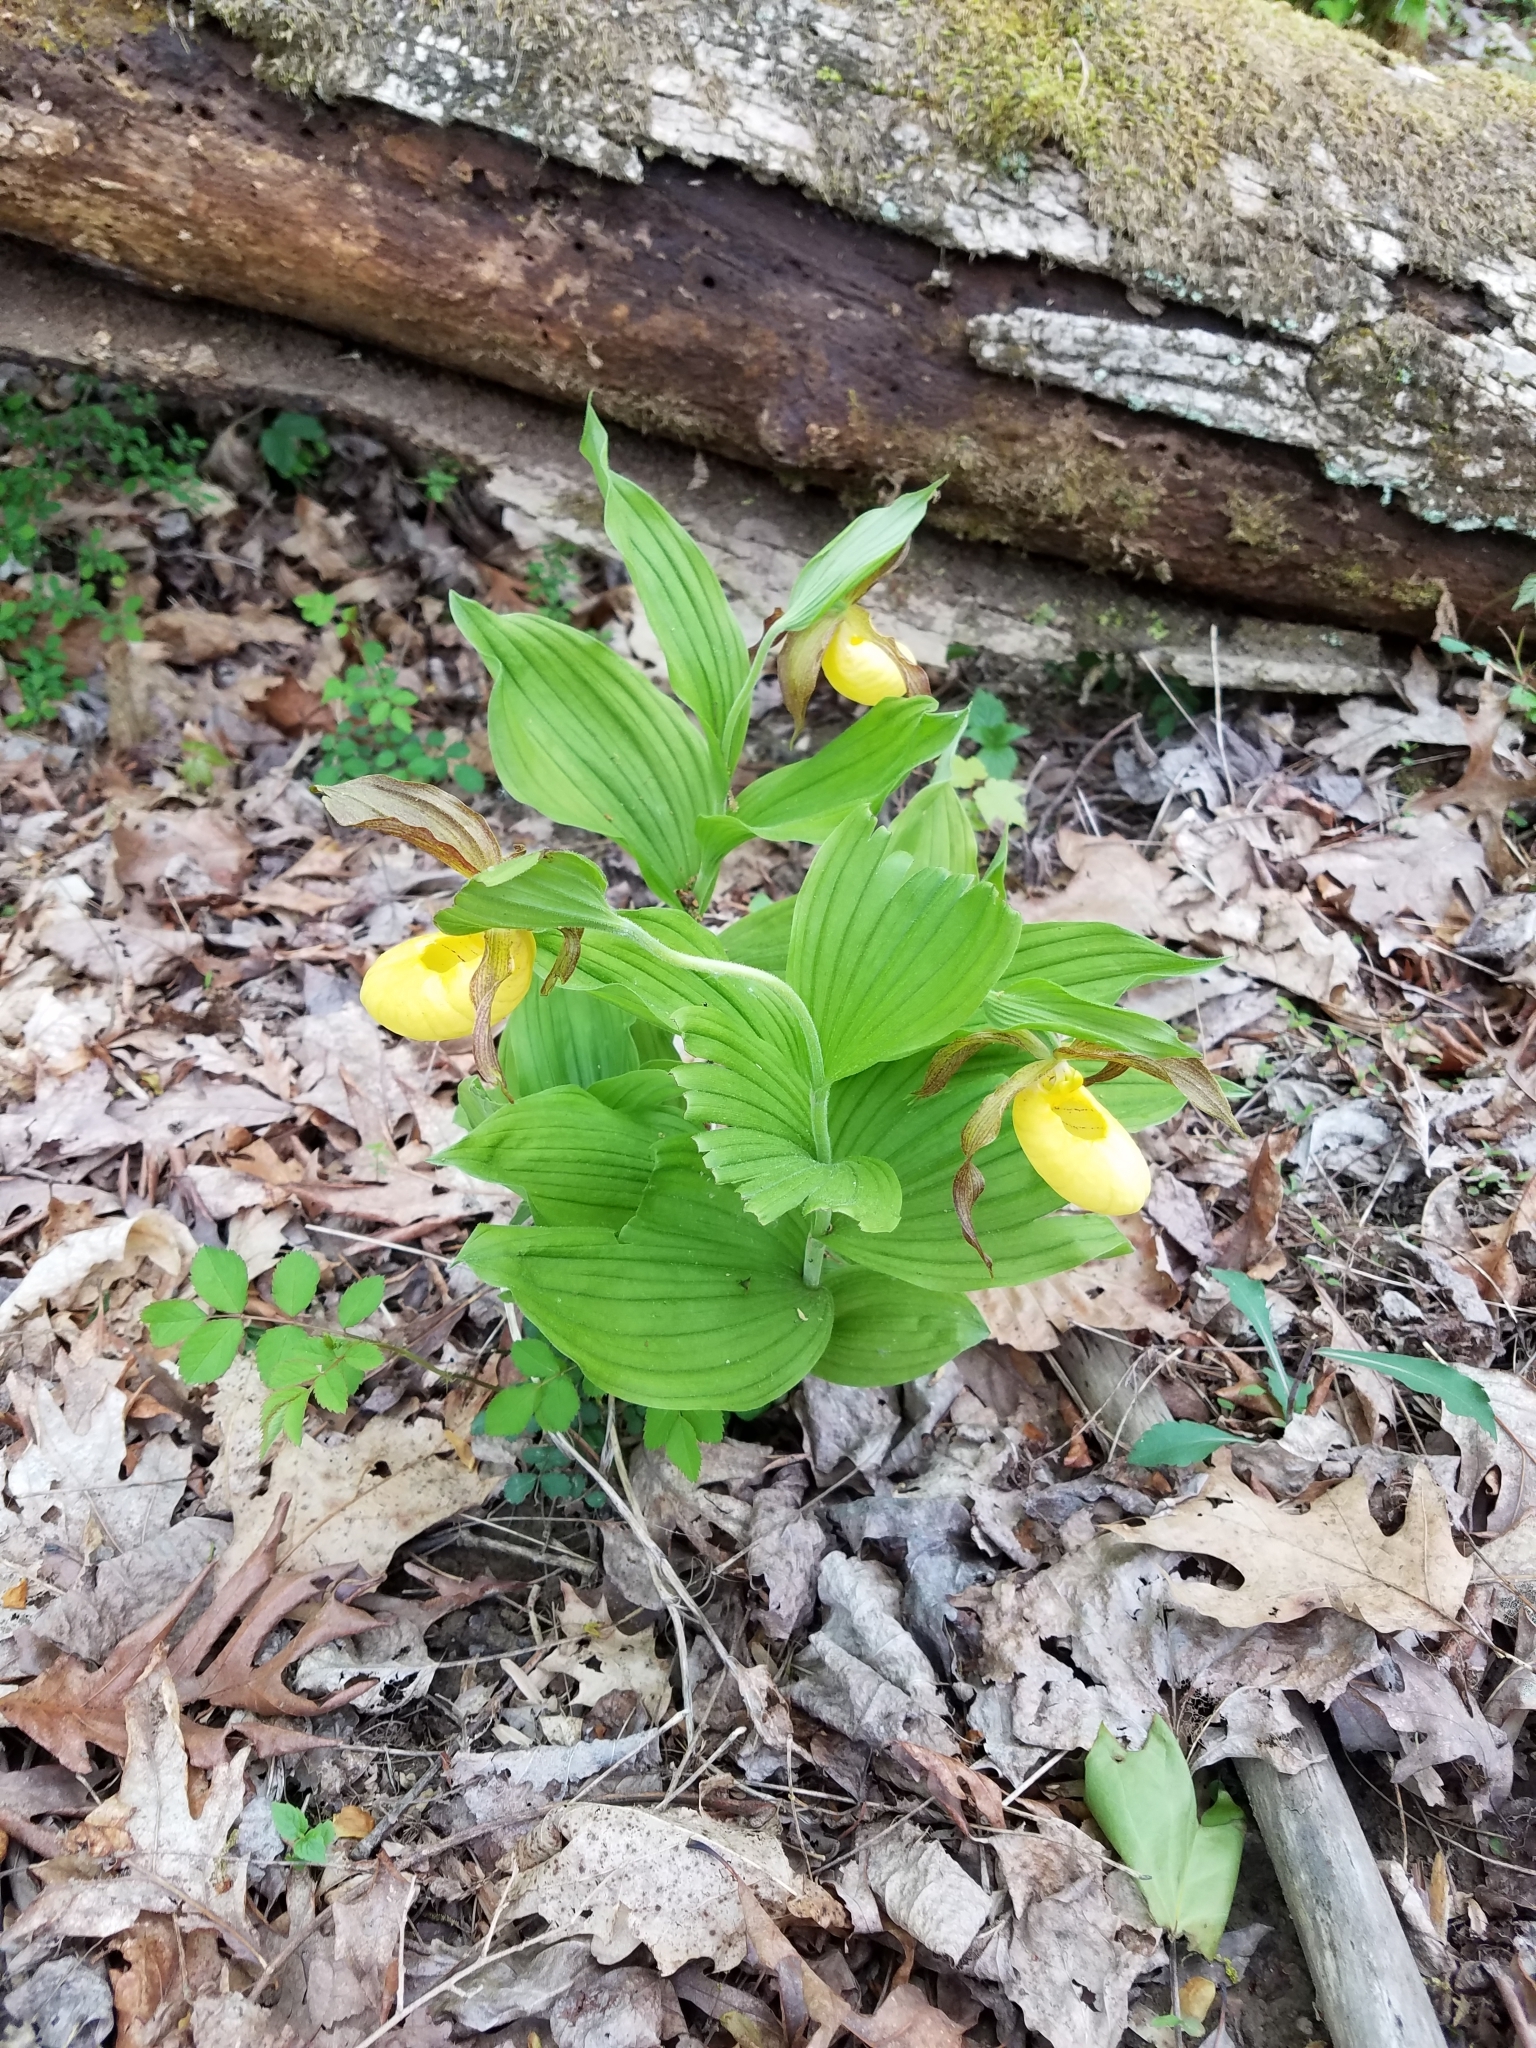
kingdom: Plantae
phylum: Tracheophyta
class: Liliopsida
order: Asparagales
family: Orchidaceae
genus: Cypripedium
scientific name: Cypripedium parviflorum
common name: American yellow lady's-slipper
